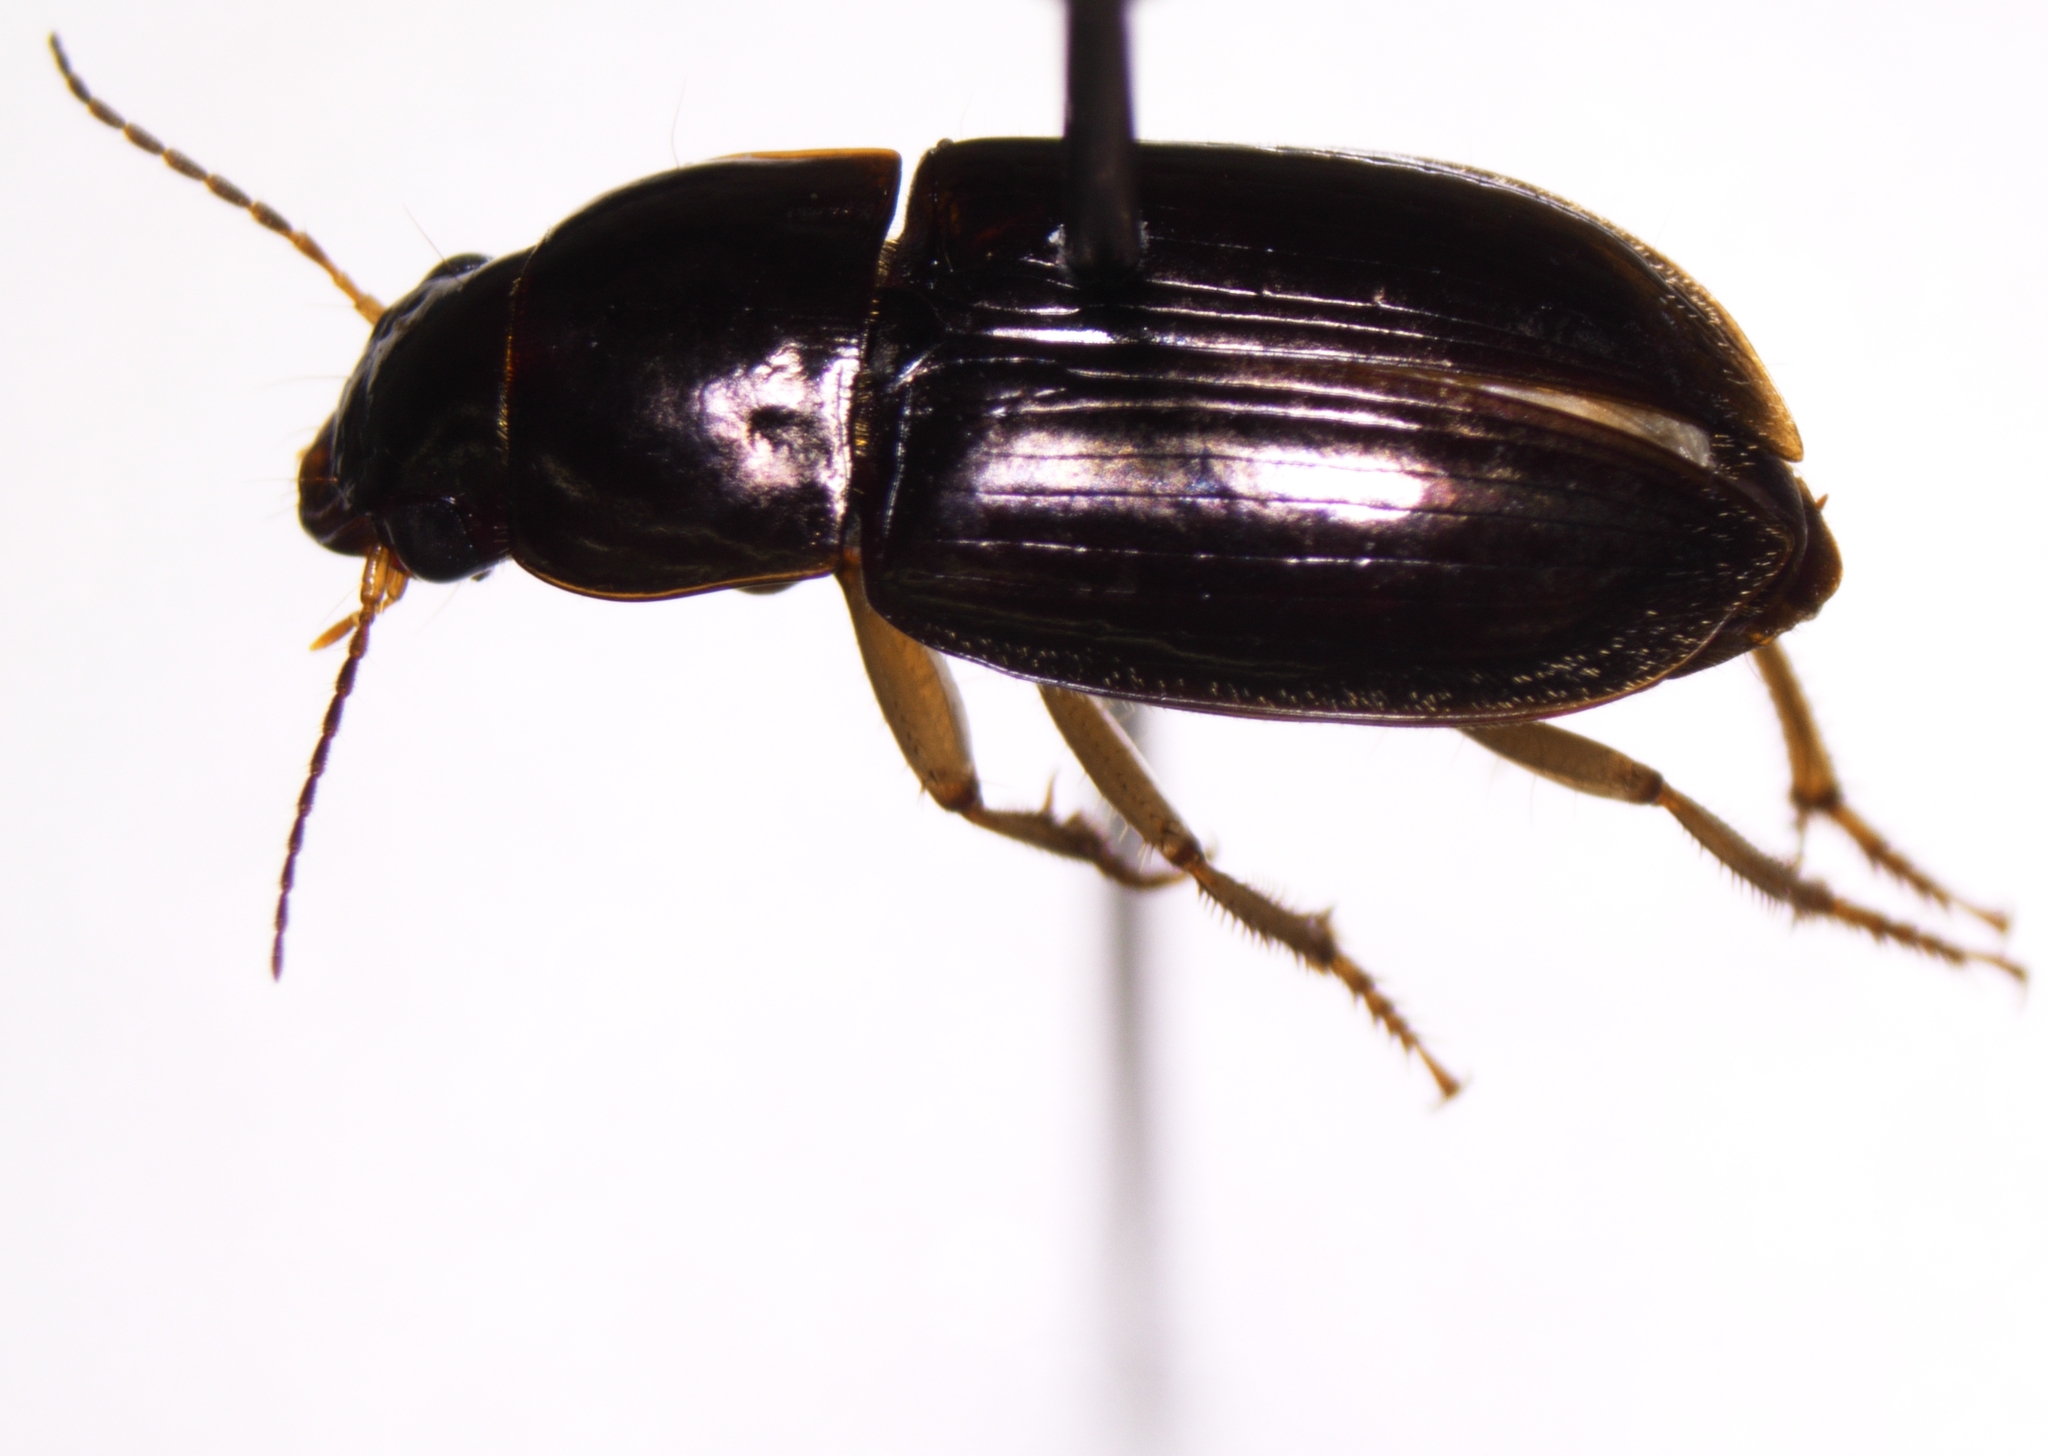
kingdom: Animalia
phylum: Arthropoda
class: Insecta
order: Coleoptera
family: Carabidae
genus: Selenophorus
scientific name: Selenophorus pyritosus
